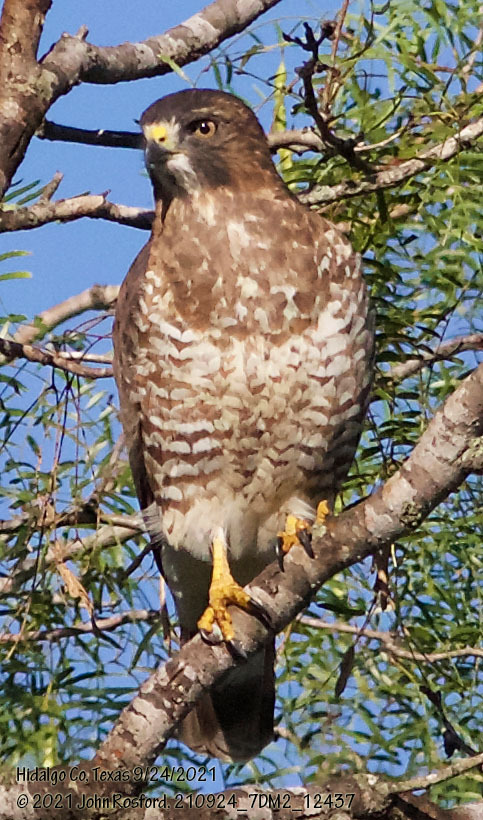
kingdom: Animalia
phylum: Chordata
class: Aves
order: Accipitriformes
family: Accipitridae
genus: Buteo
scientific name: Buteo platypterus
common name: Broad-winged hawk
